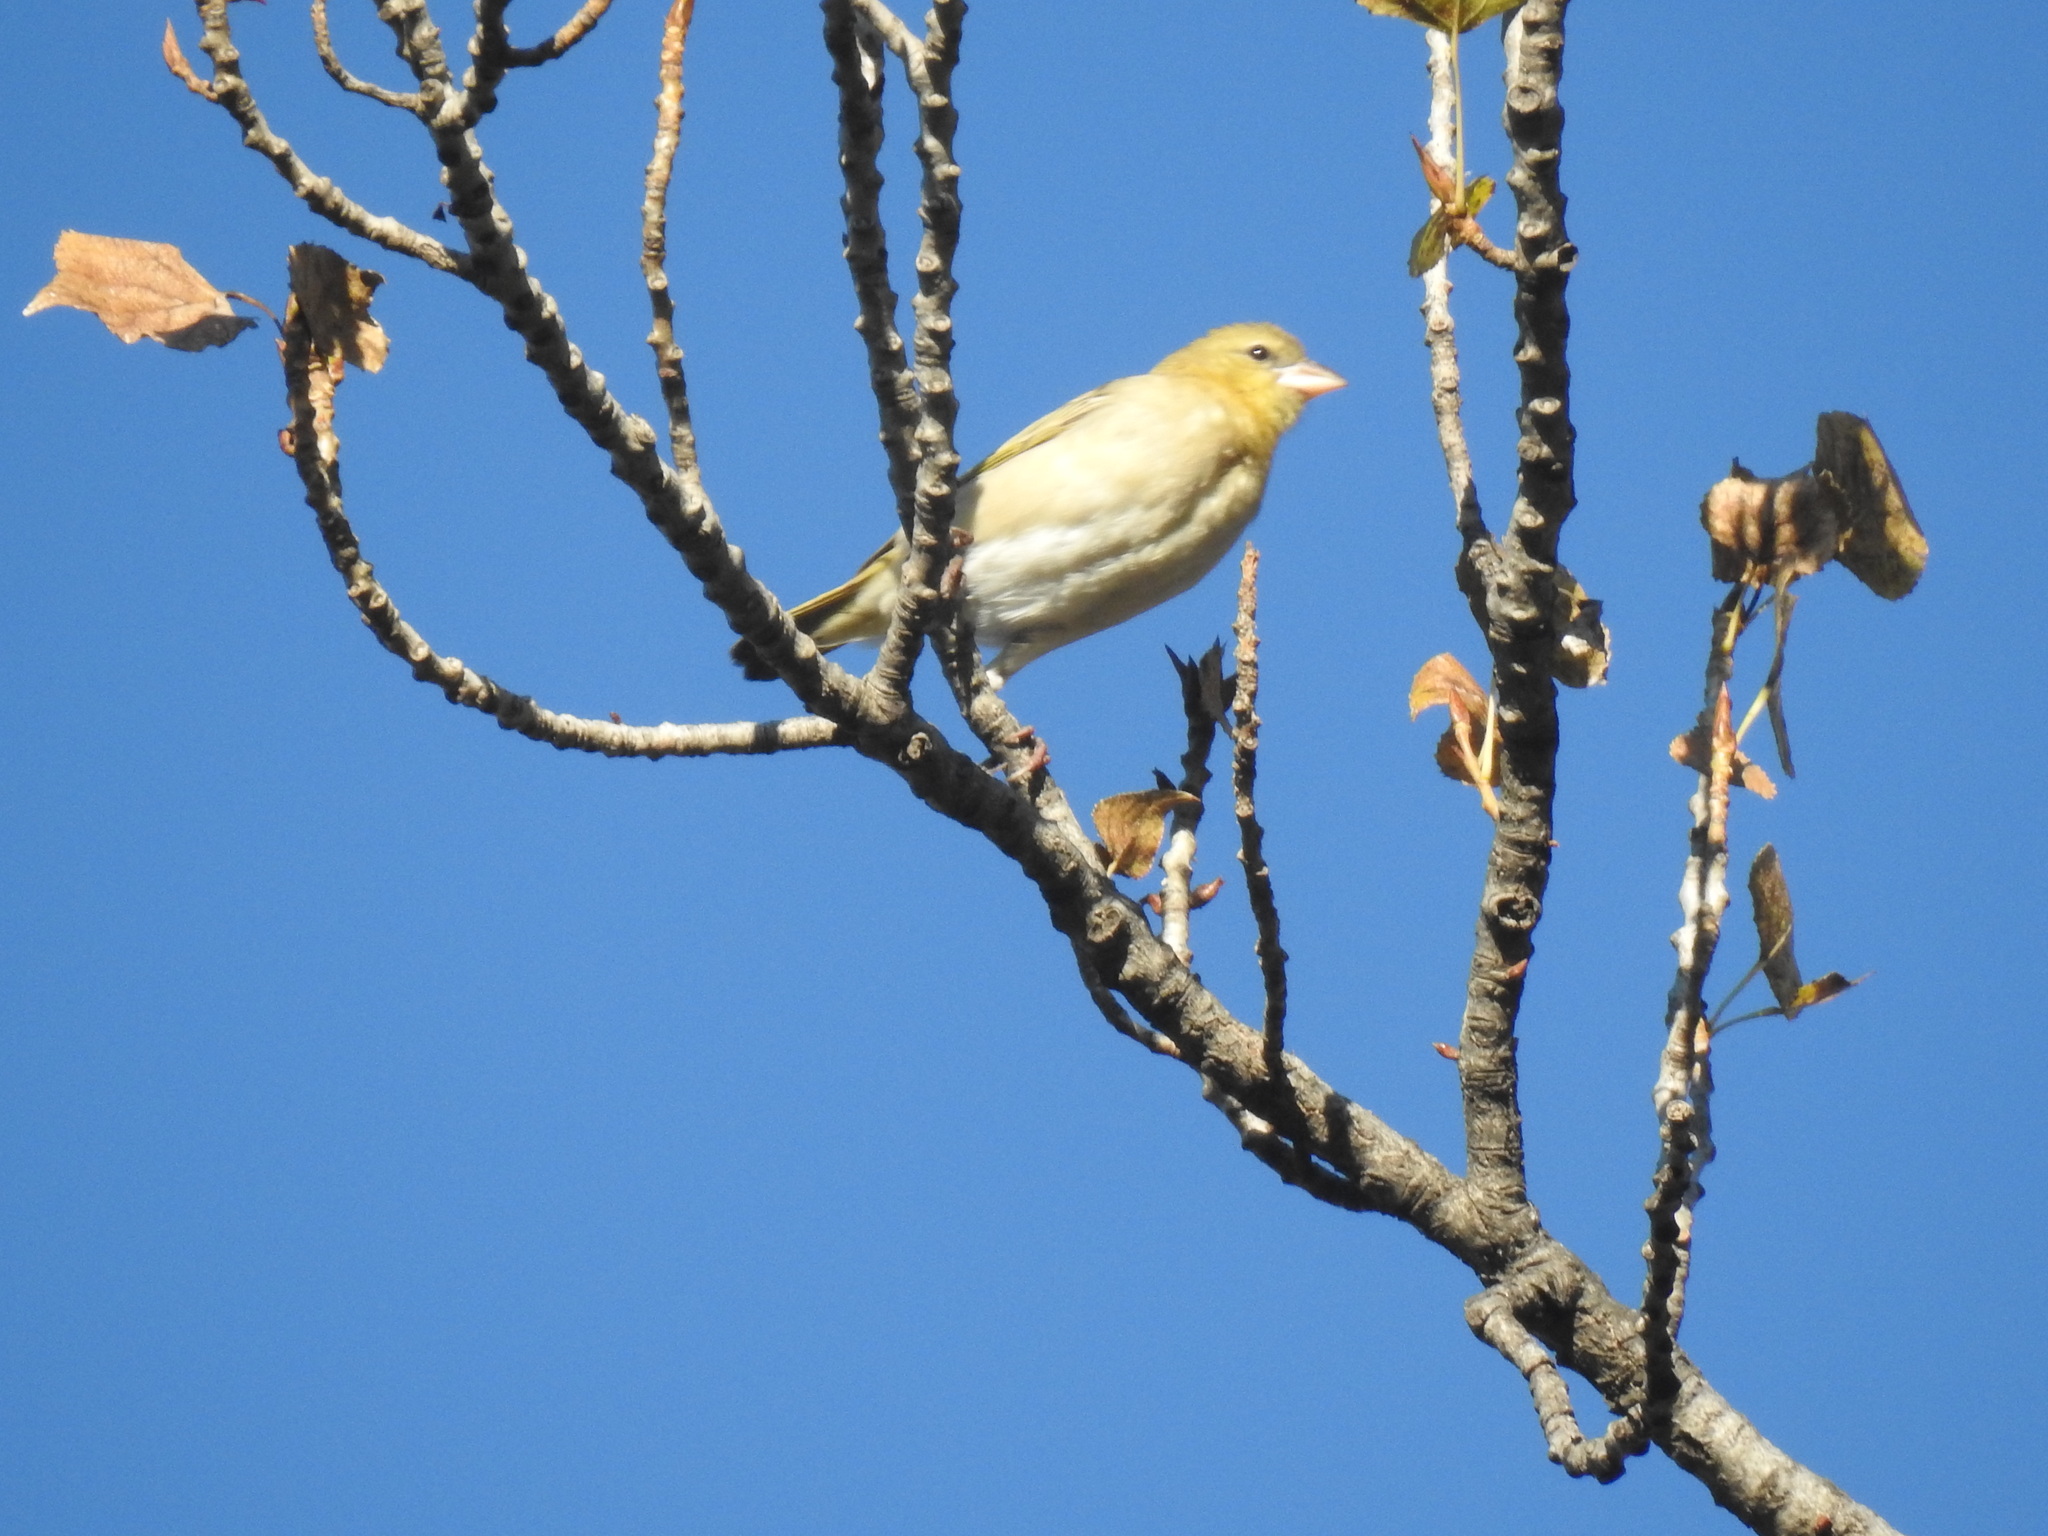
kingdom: Animalia
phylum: Chordata
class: Aves
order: Passeriformes
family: Ploceidae
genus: Ploceus
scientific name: Ploceus velatus
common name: Southern masked weaver
